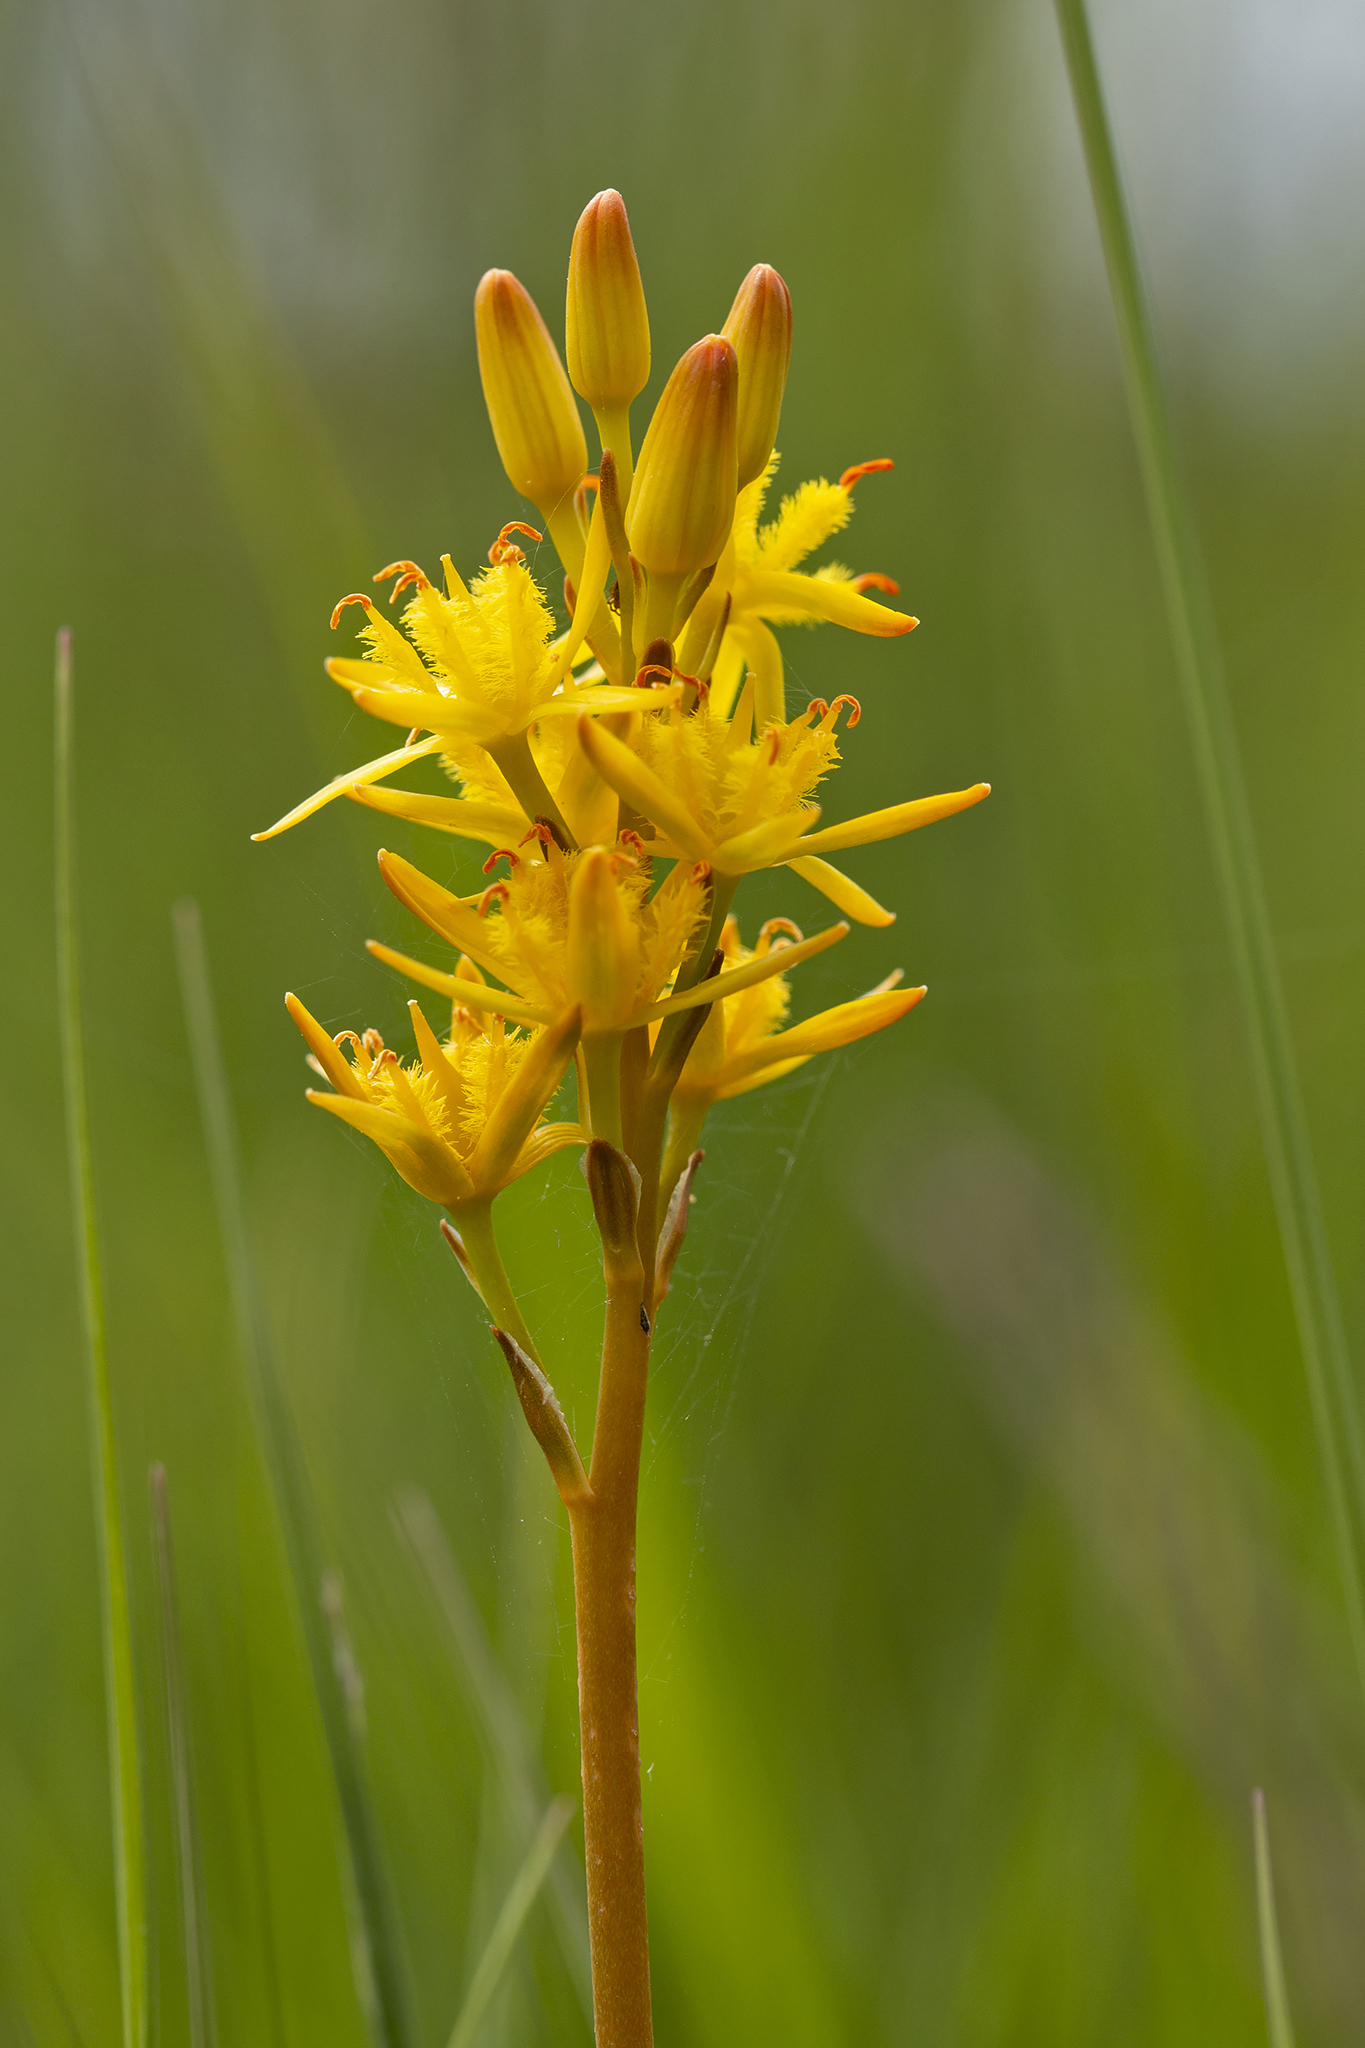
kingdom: Plantae
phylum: Tracheophyta
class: Liliopsida
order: Dioscoreales
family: Nartheciaceae
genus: Narthecium
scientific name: Narthecium ossifragum
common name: Bog asphodel
